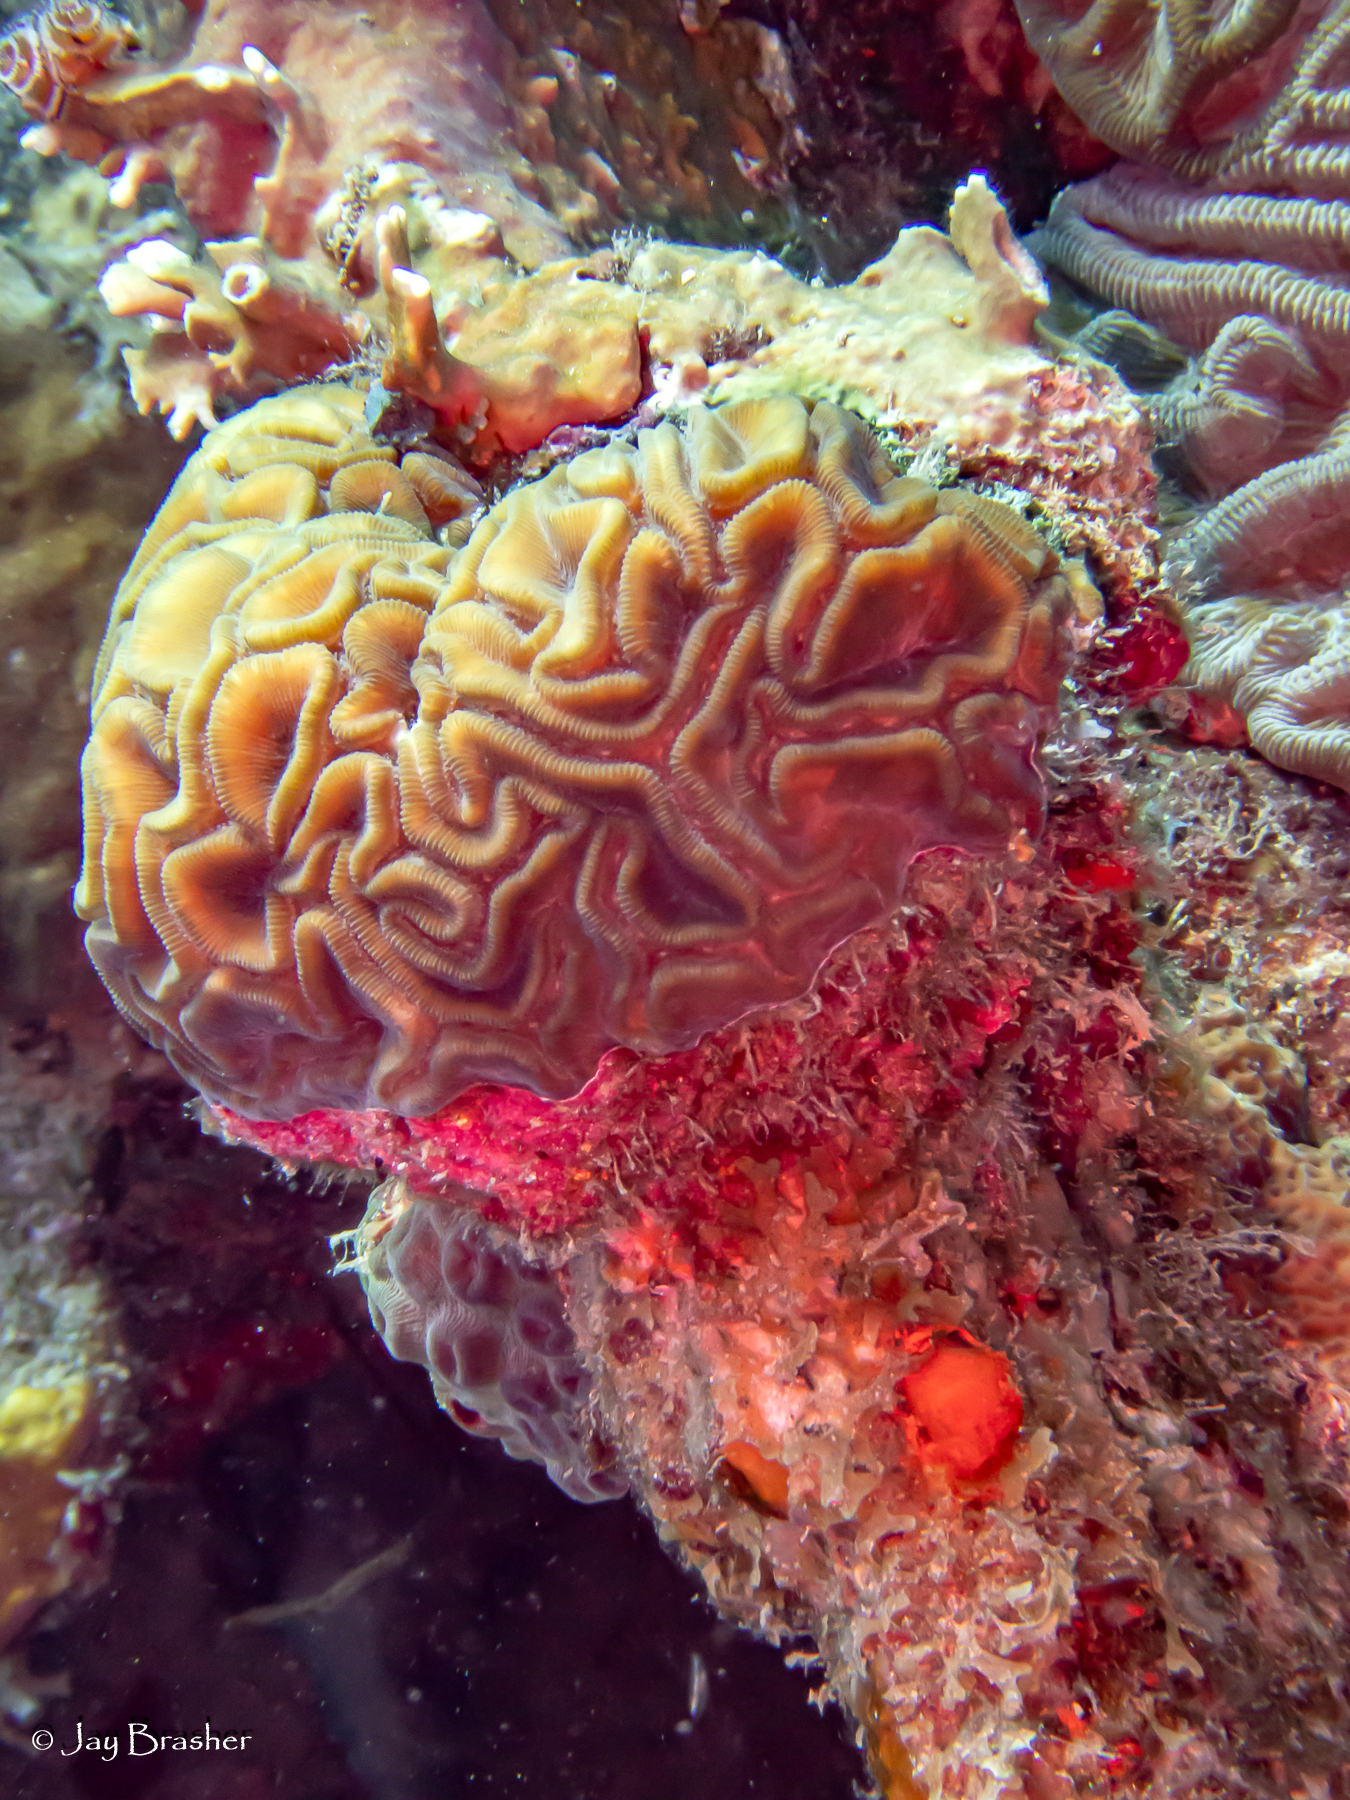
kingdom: Animalia
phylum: Cnidaria
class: Anthozoa
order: Scleractinia
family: Faviidae
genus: Diploria
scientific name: Diploria labyrinthiformis
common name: Grooved brain coral
